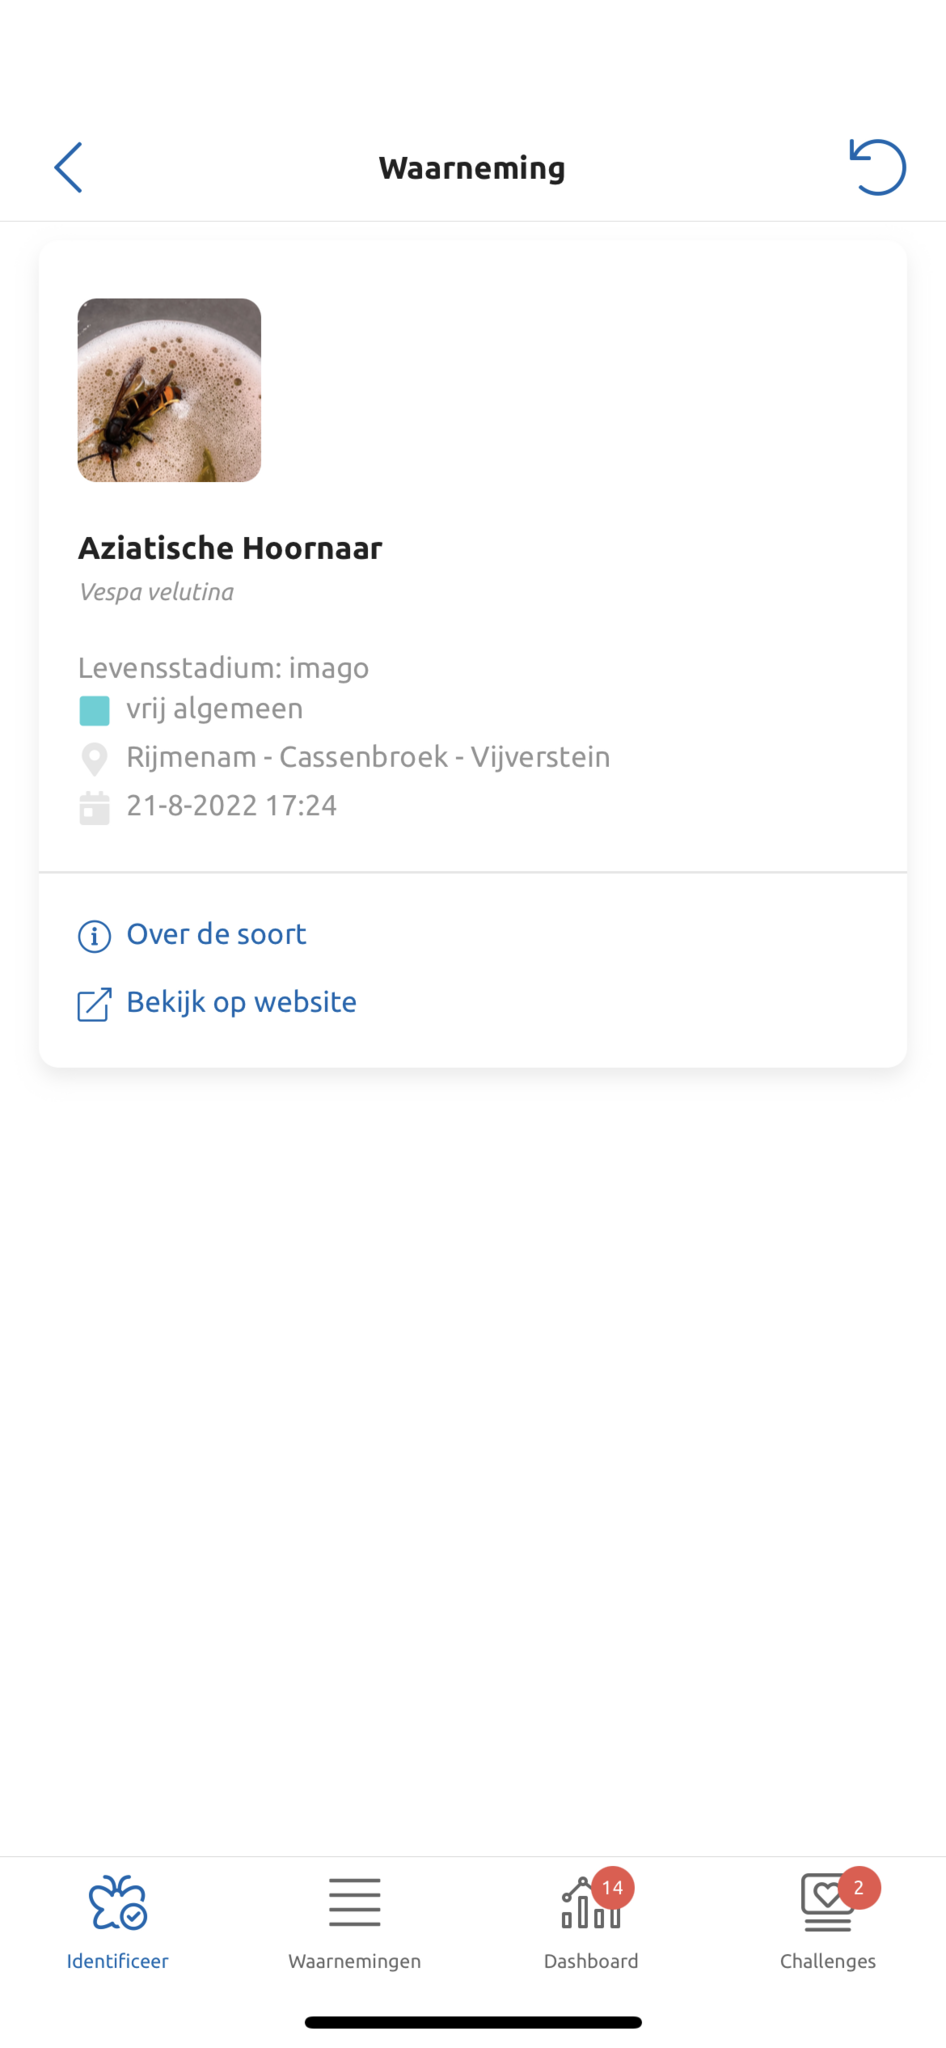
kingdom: Animalia
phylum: Arthropoda
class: Insecta
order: Hymenoptera
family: Vespidae
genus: Vespa
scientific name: Vespa velutina
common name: Asian hornet
